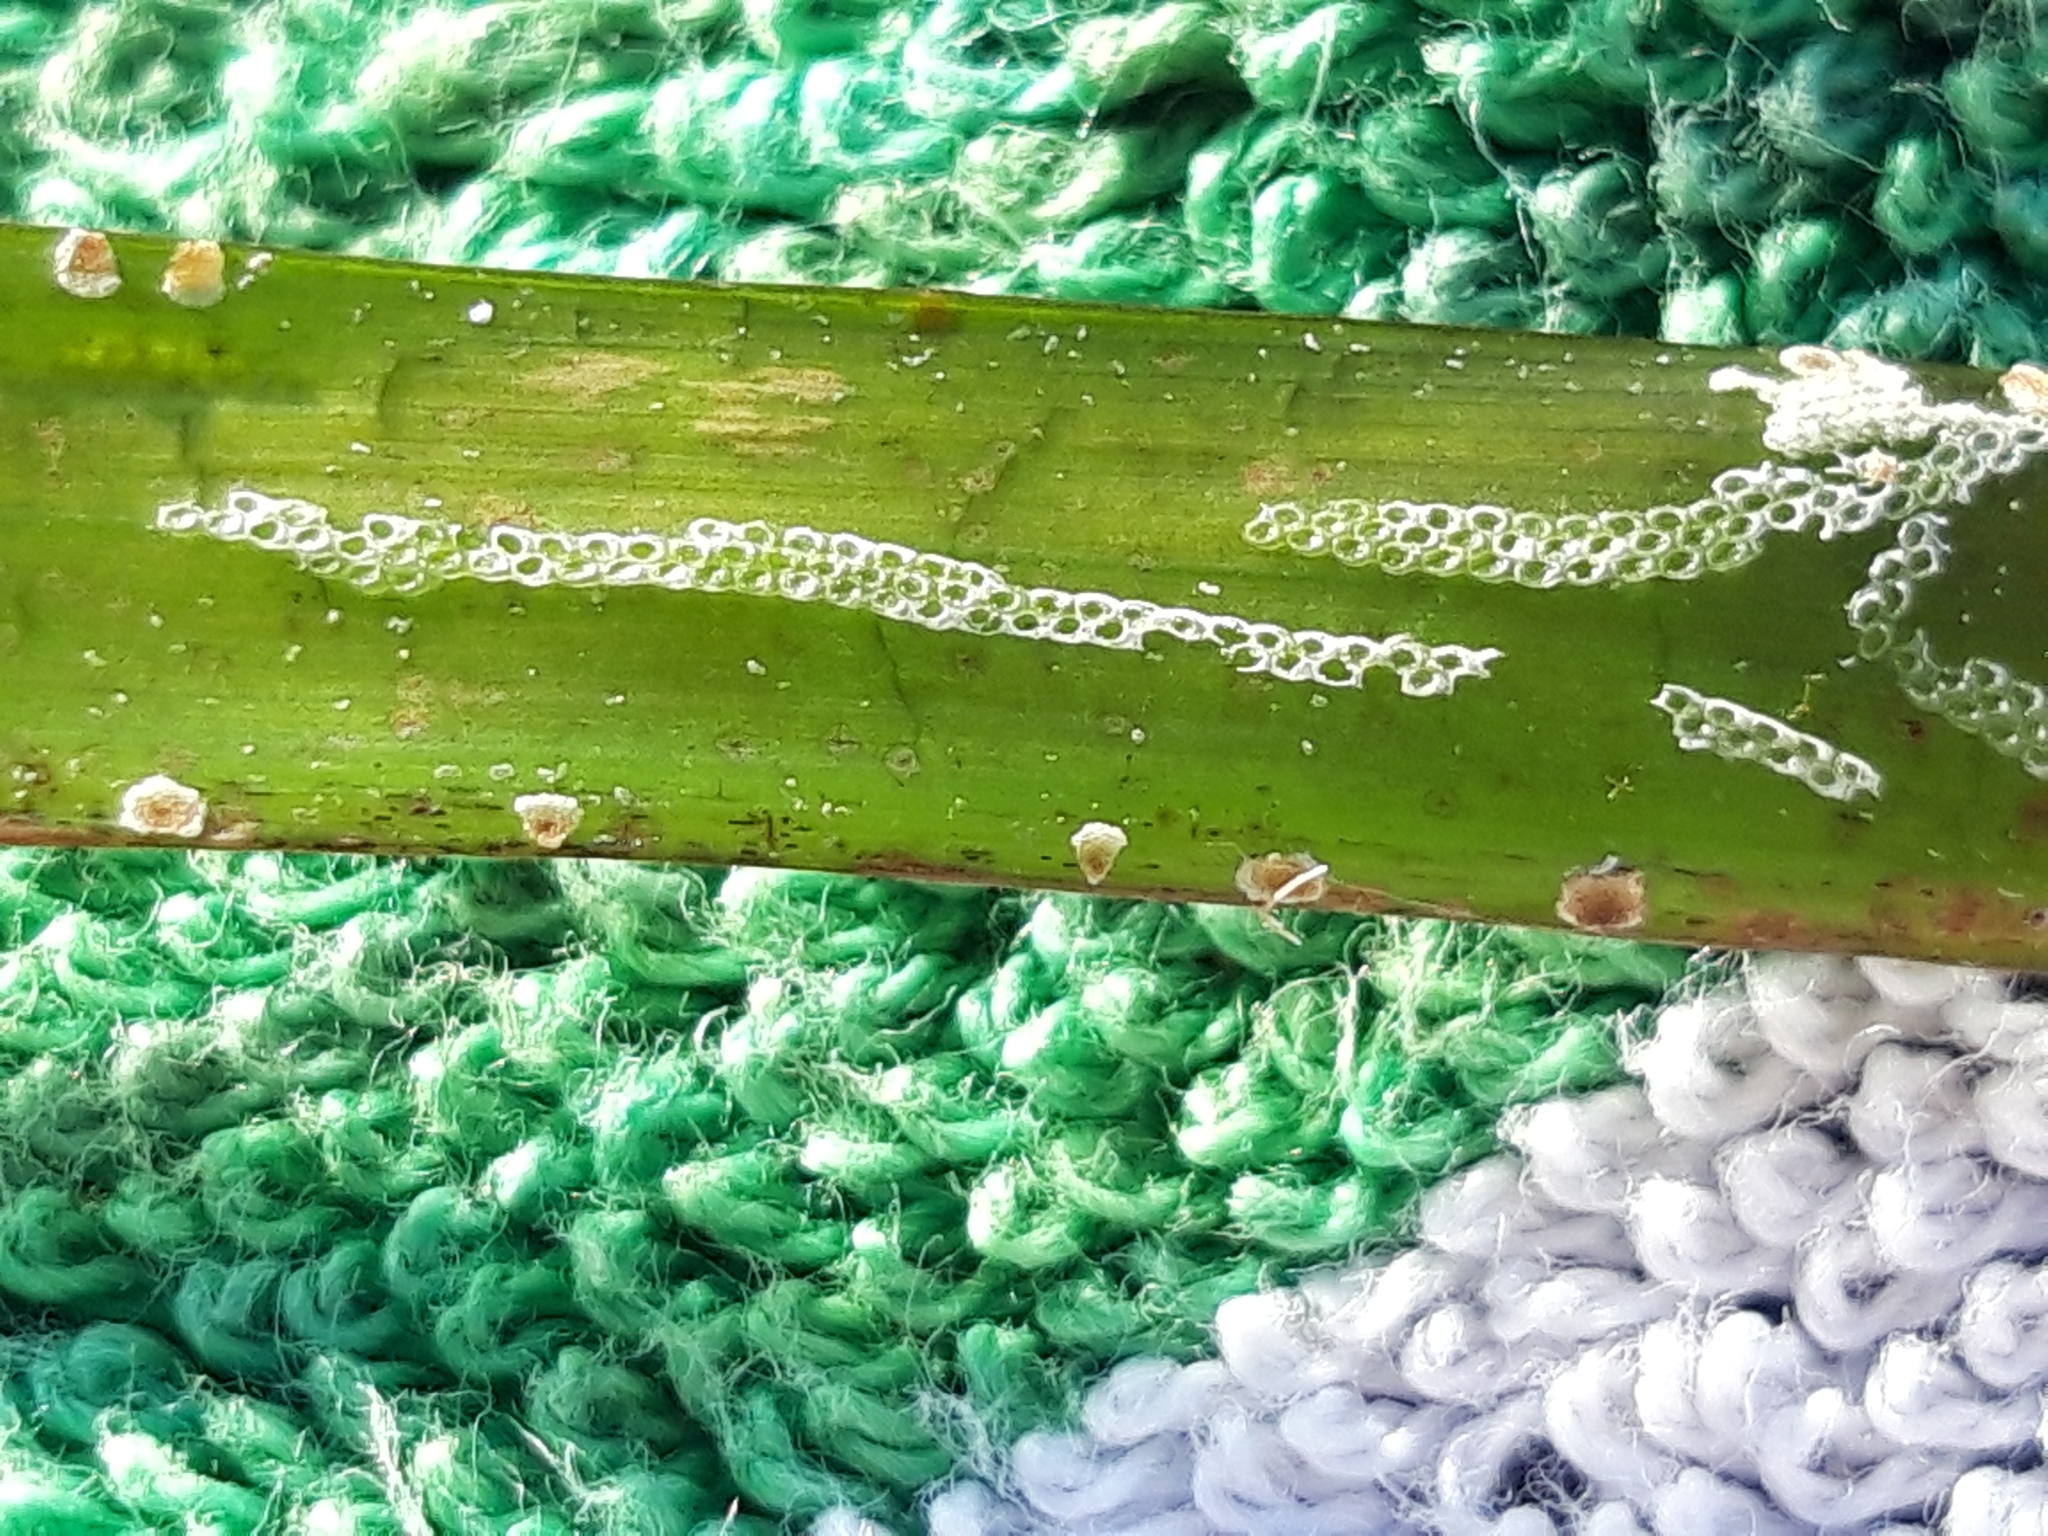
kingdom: Animalia
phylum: Bryozoa
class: Gymnolaemata
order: Cheilostomatida
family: Electridae
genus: Electra
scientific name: Electra posidoniae
